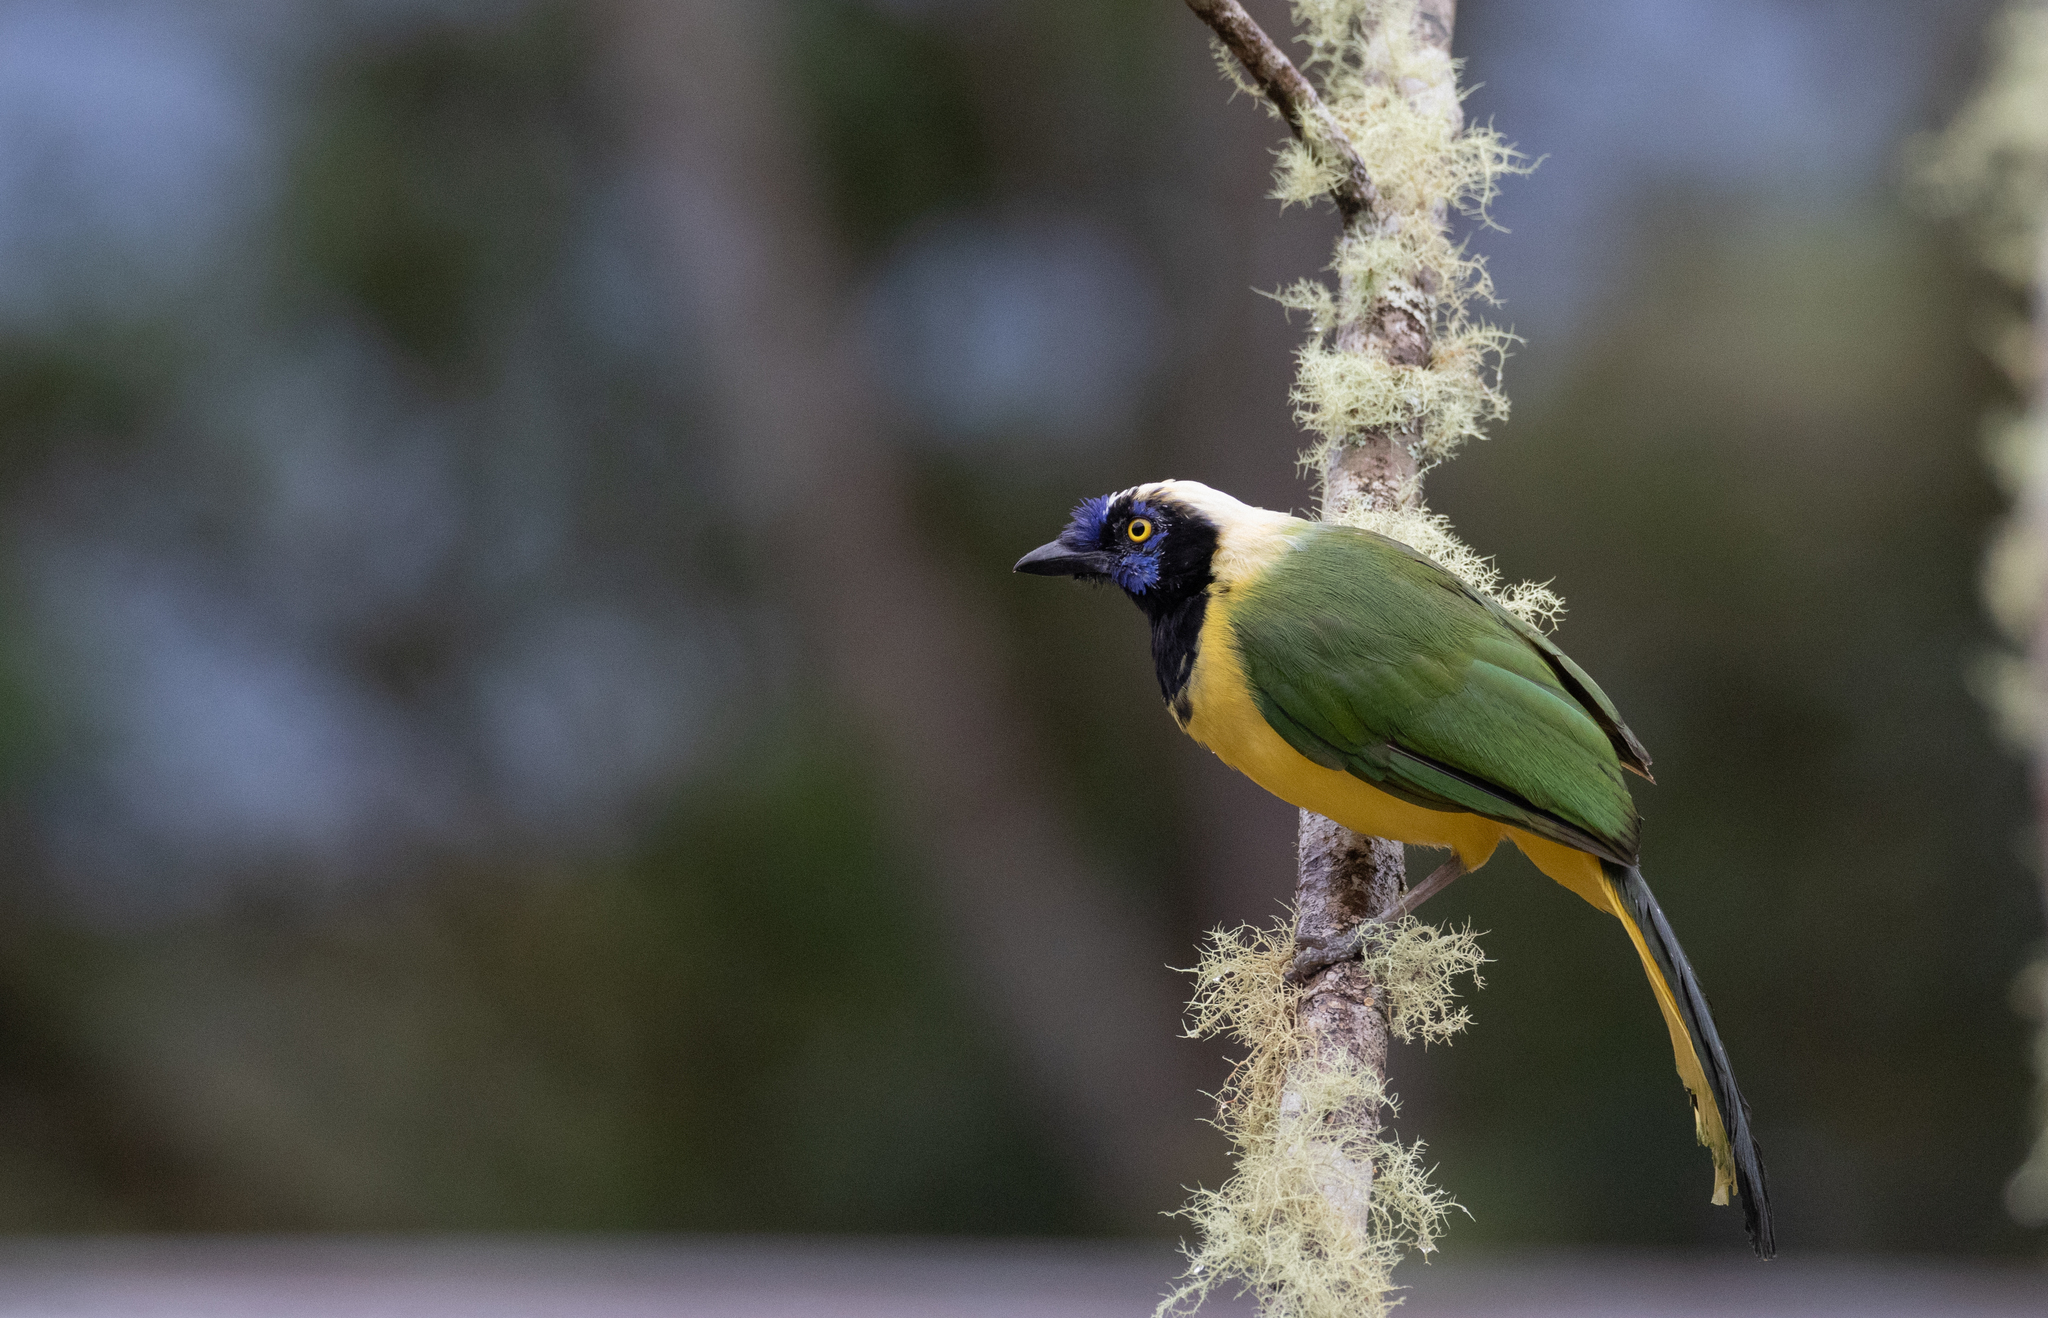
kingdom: Animalia
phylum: Chordata
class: Aves
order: Passeriformes
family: Corvidae
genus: Cyanocorax
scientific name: Cyanocorax yncas
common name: Green jay
